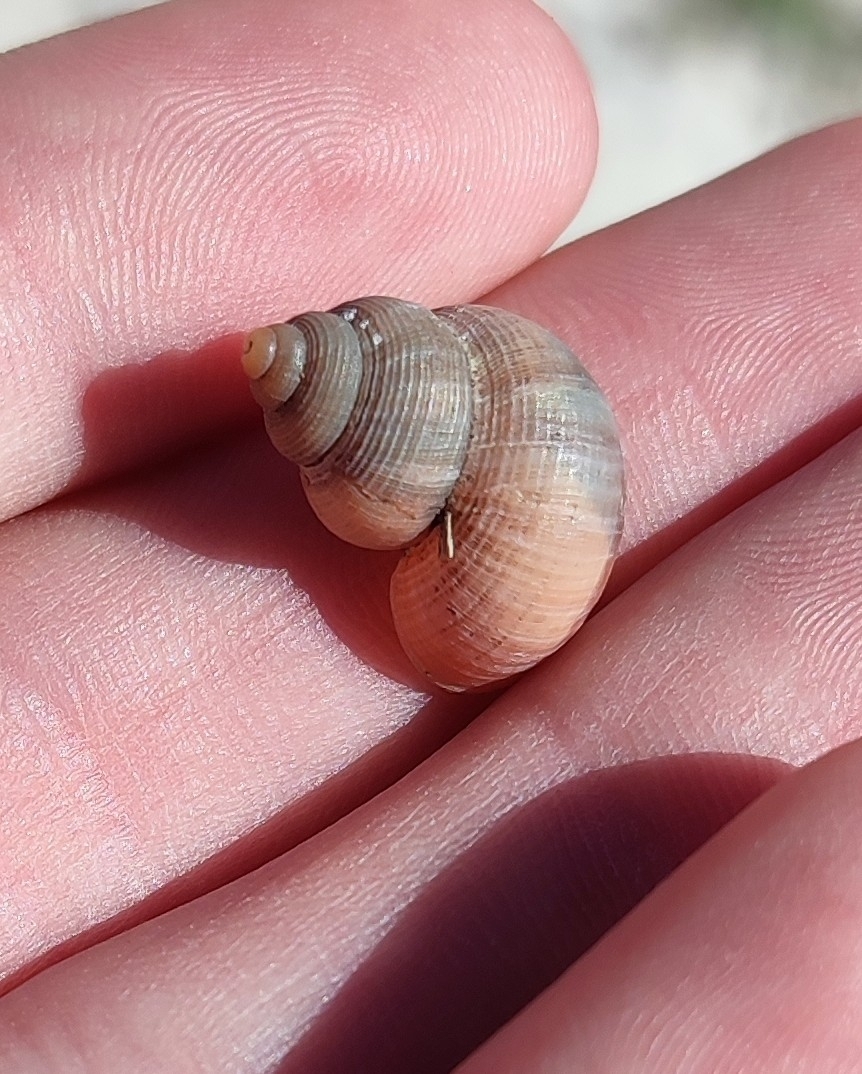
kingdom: Animalia
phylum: Mollusca
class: Gastropoda
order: Littorinimorpha
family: Pomatiidae
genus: Tudorella
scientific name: Tudorella sulcata
